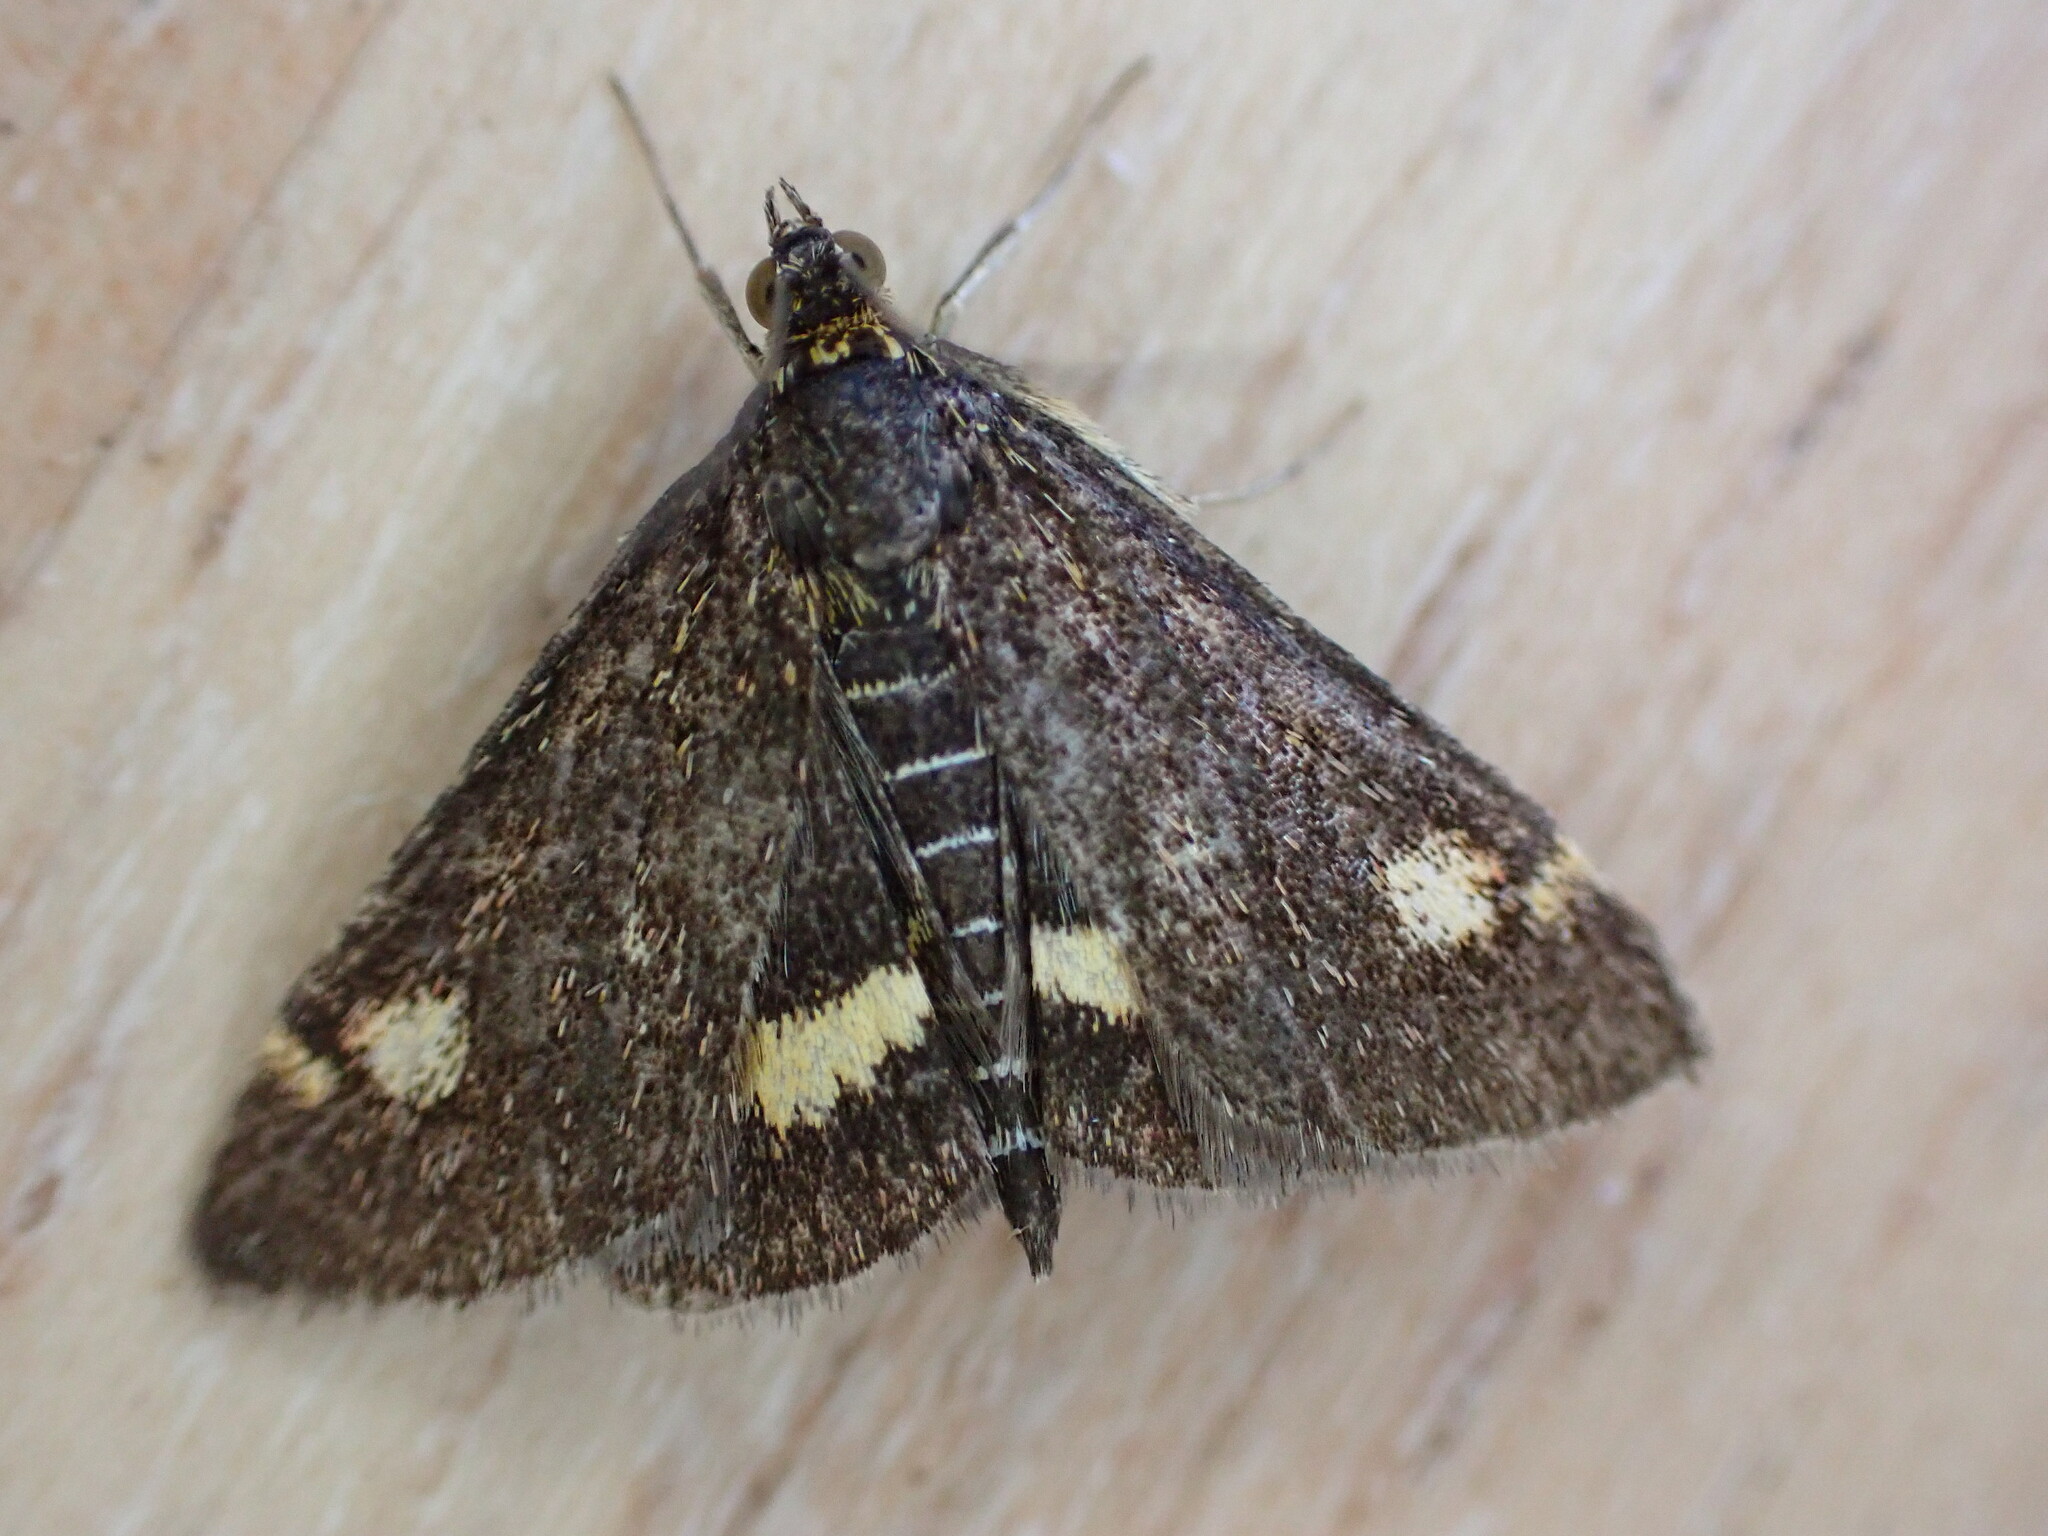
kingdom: Animalia
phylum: Arthropoda
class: Insecta
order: Lepidoptera
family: Crambidae
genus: Pyrausta
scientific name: Pyrausta aurata
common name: Small purple & gold
